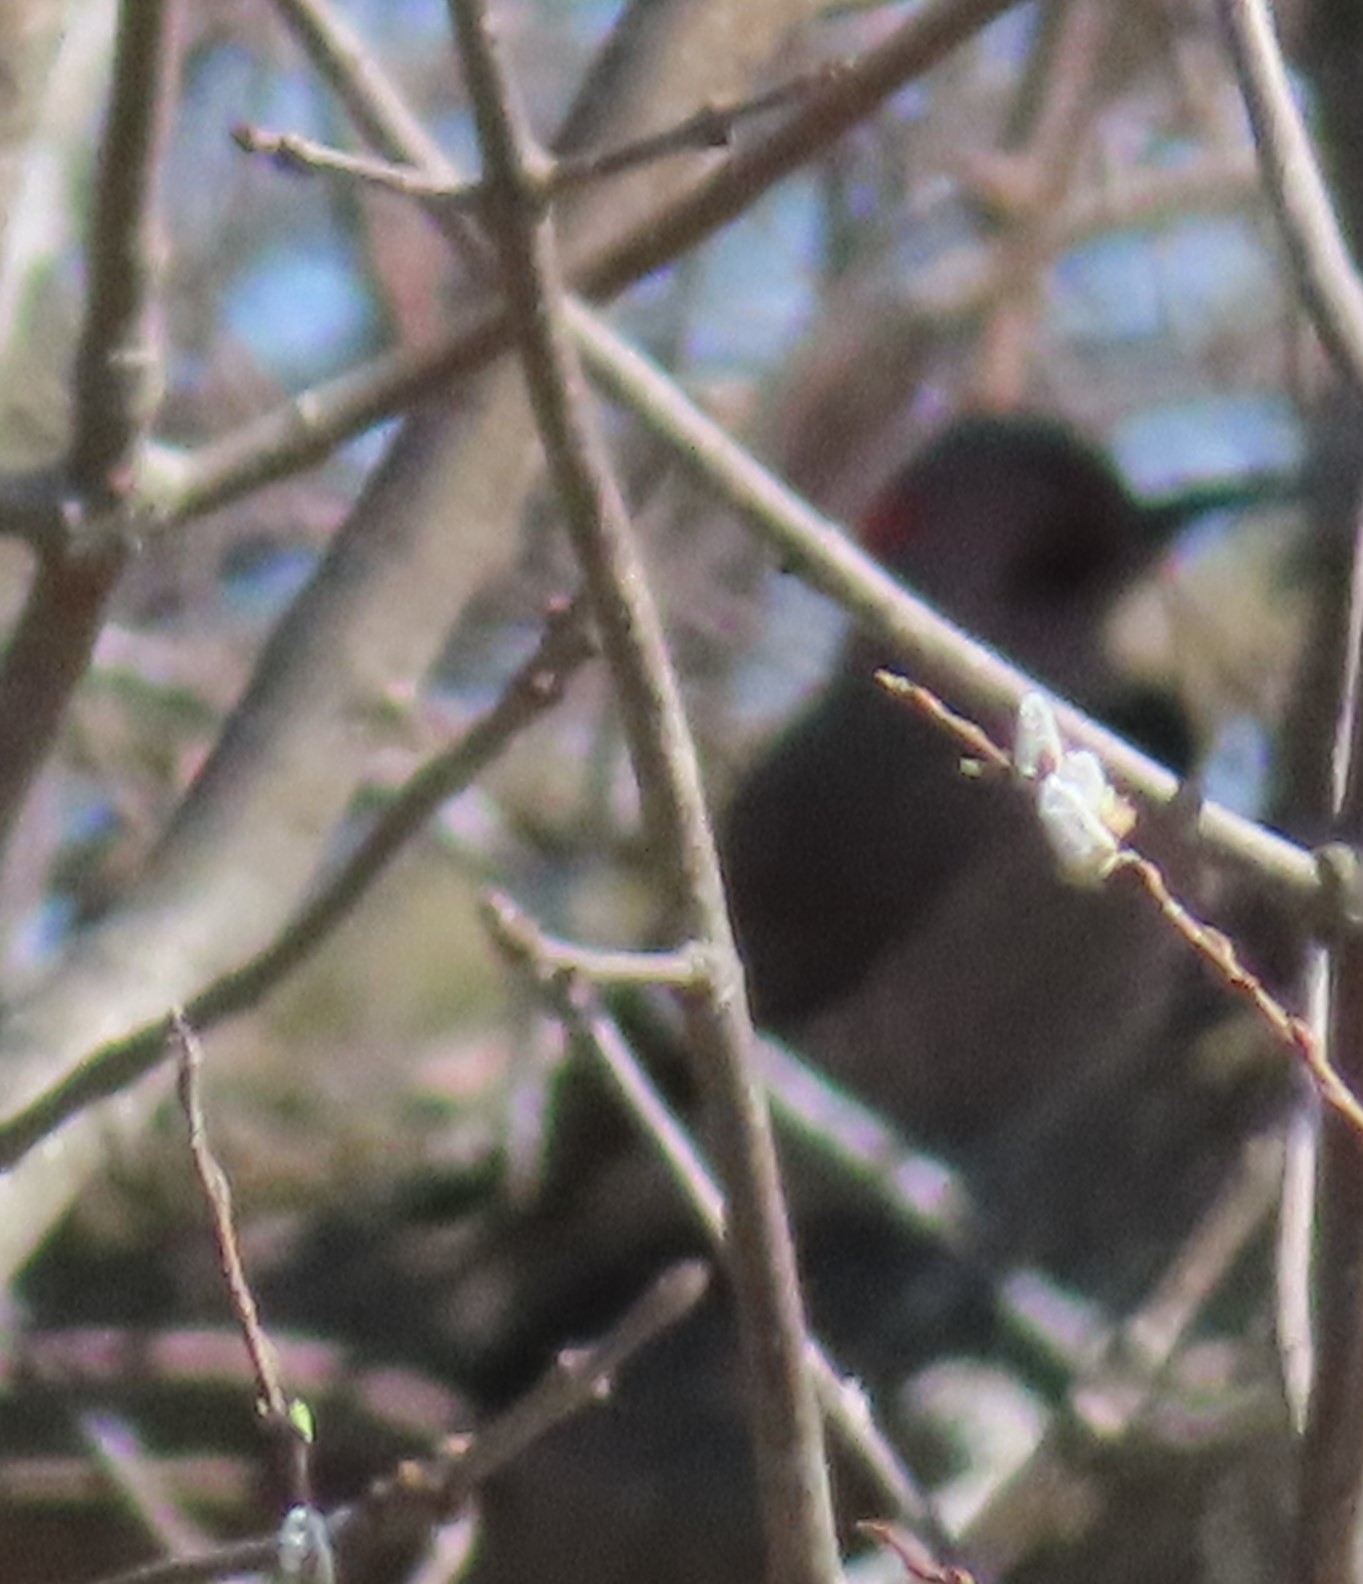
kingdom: Animalia
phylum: Chordata
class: Aves
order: Piciformes
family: Picidae
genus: Colaptes
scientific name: Colaptes auratus
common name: Northern flicker
